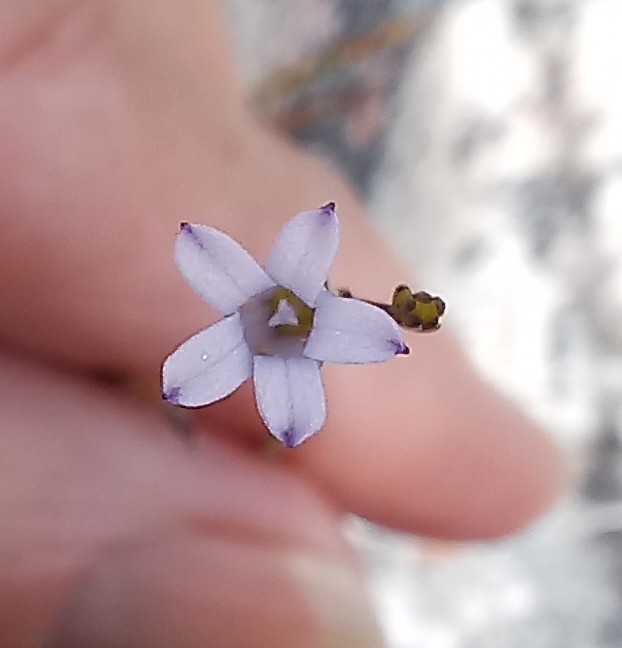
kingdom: Plantae
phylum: Tracheophyta
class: Magnoliopsida
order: Asterales
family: Campanulaceae
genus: Siphocodon
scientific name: Siphocodon spartioides
